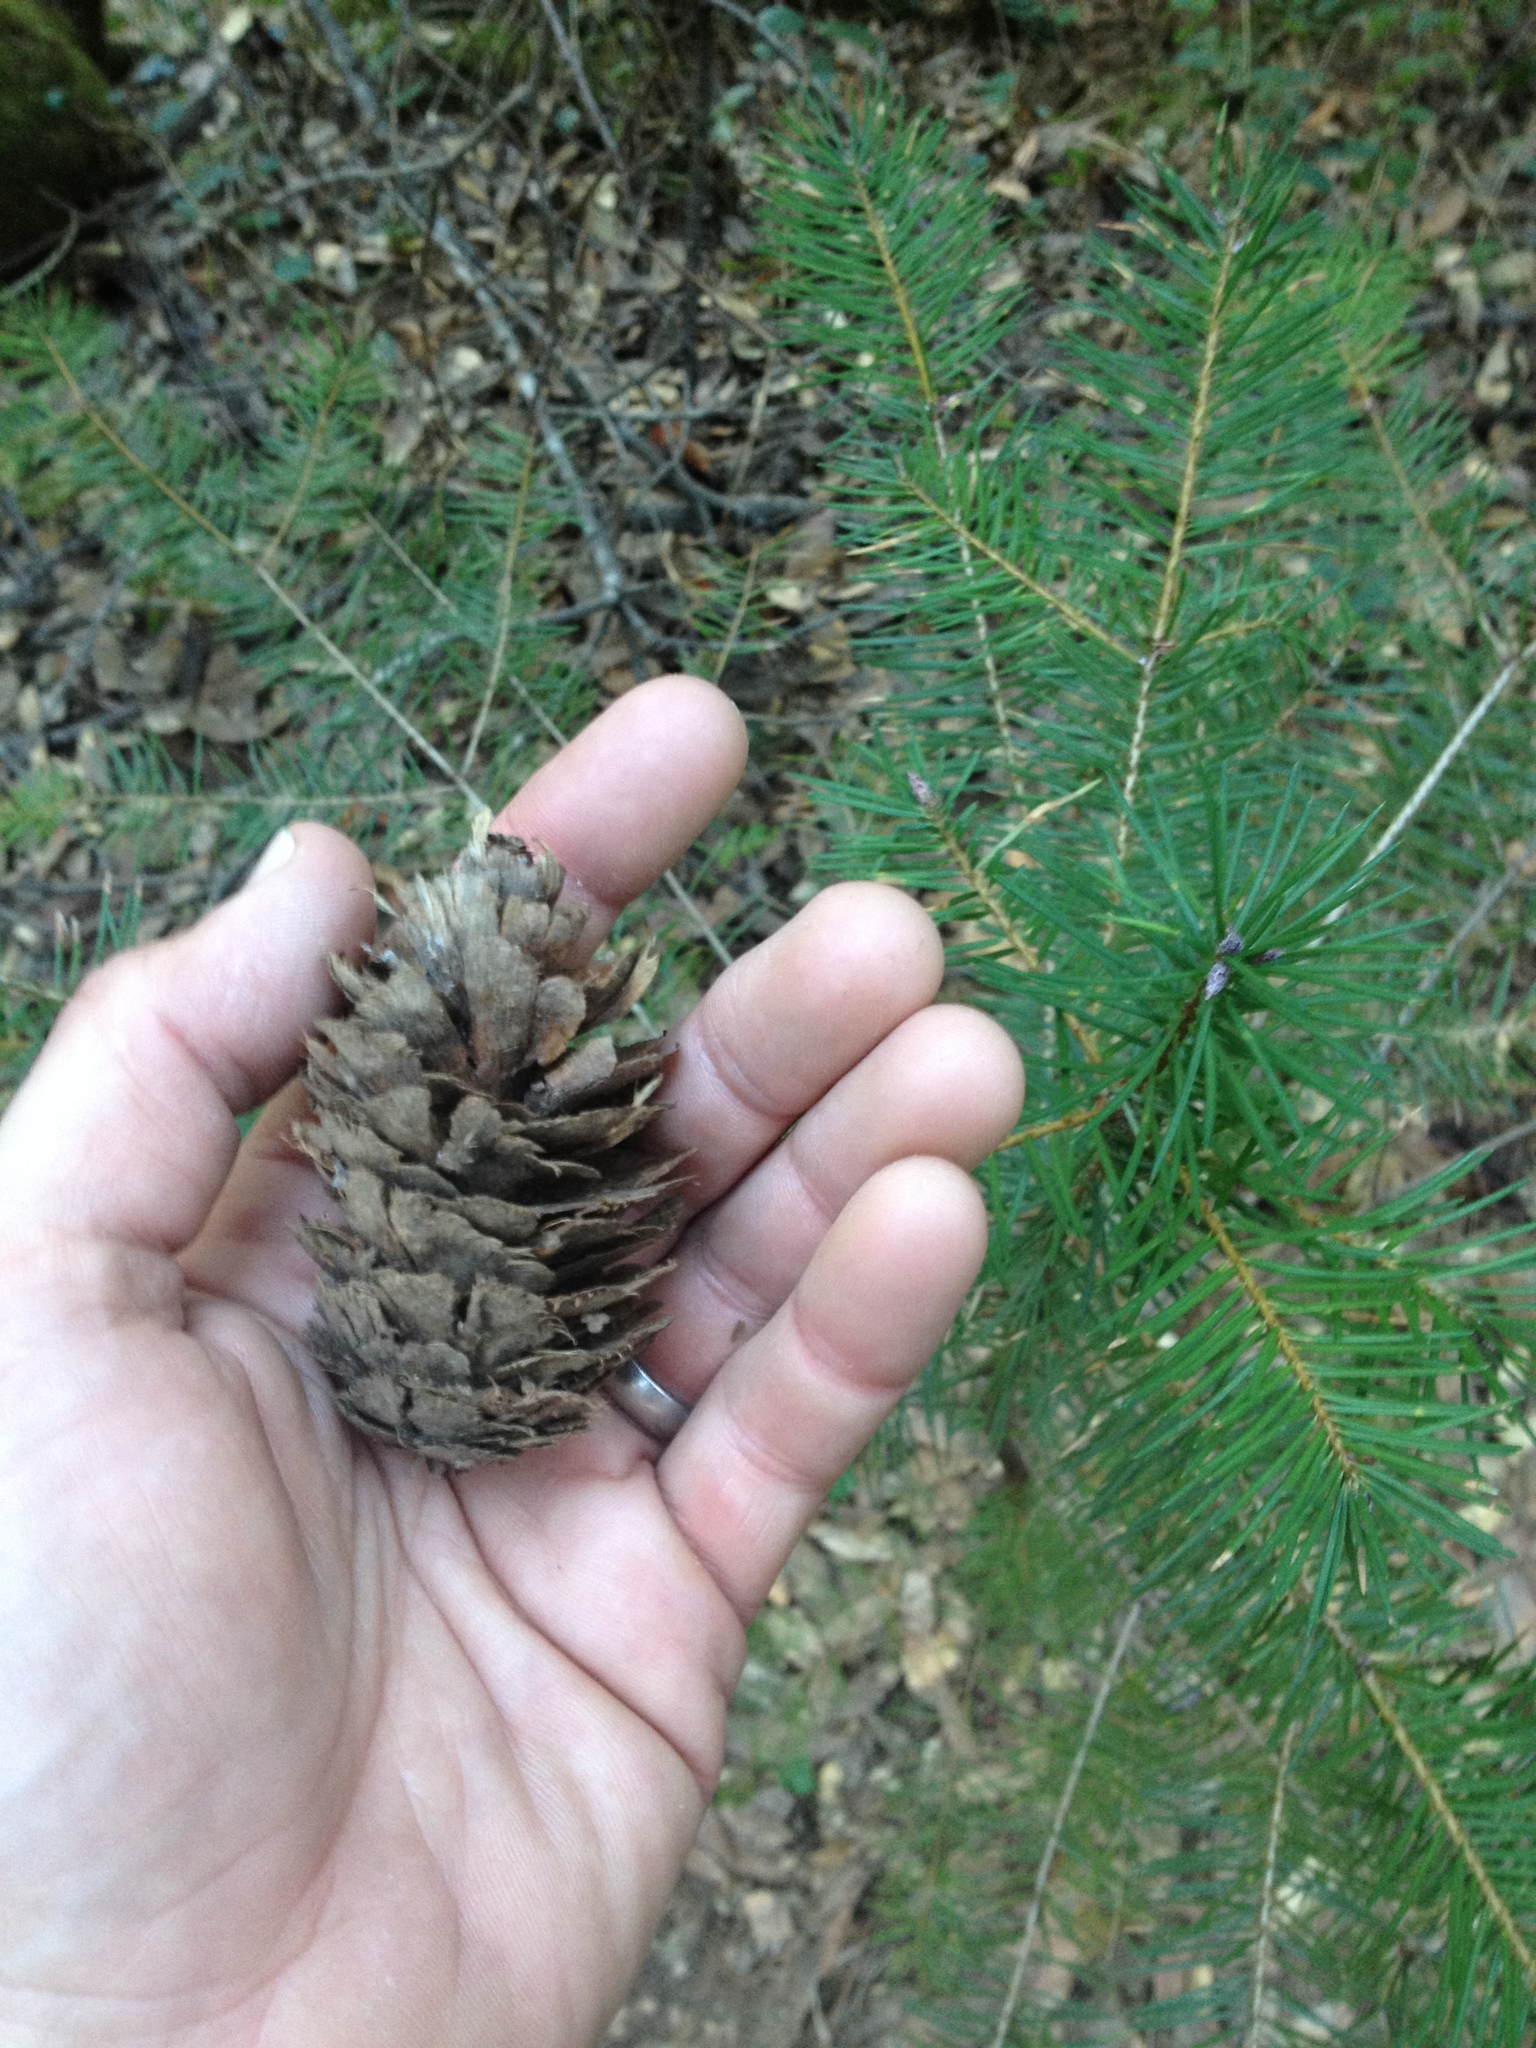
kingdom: Plantae
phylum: Tracheophyta
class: Pinopsida
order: Pinales
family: Pinaceae
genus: Pseudotsuga
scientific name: Pseudotsuga menziesii
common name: Douglas fir
